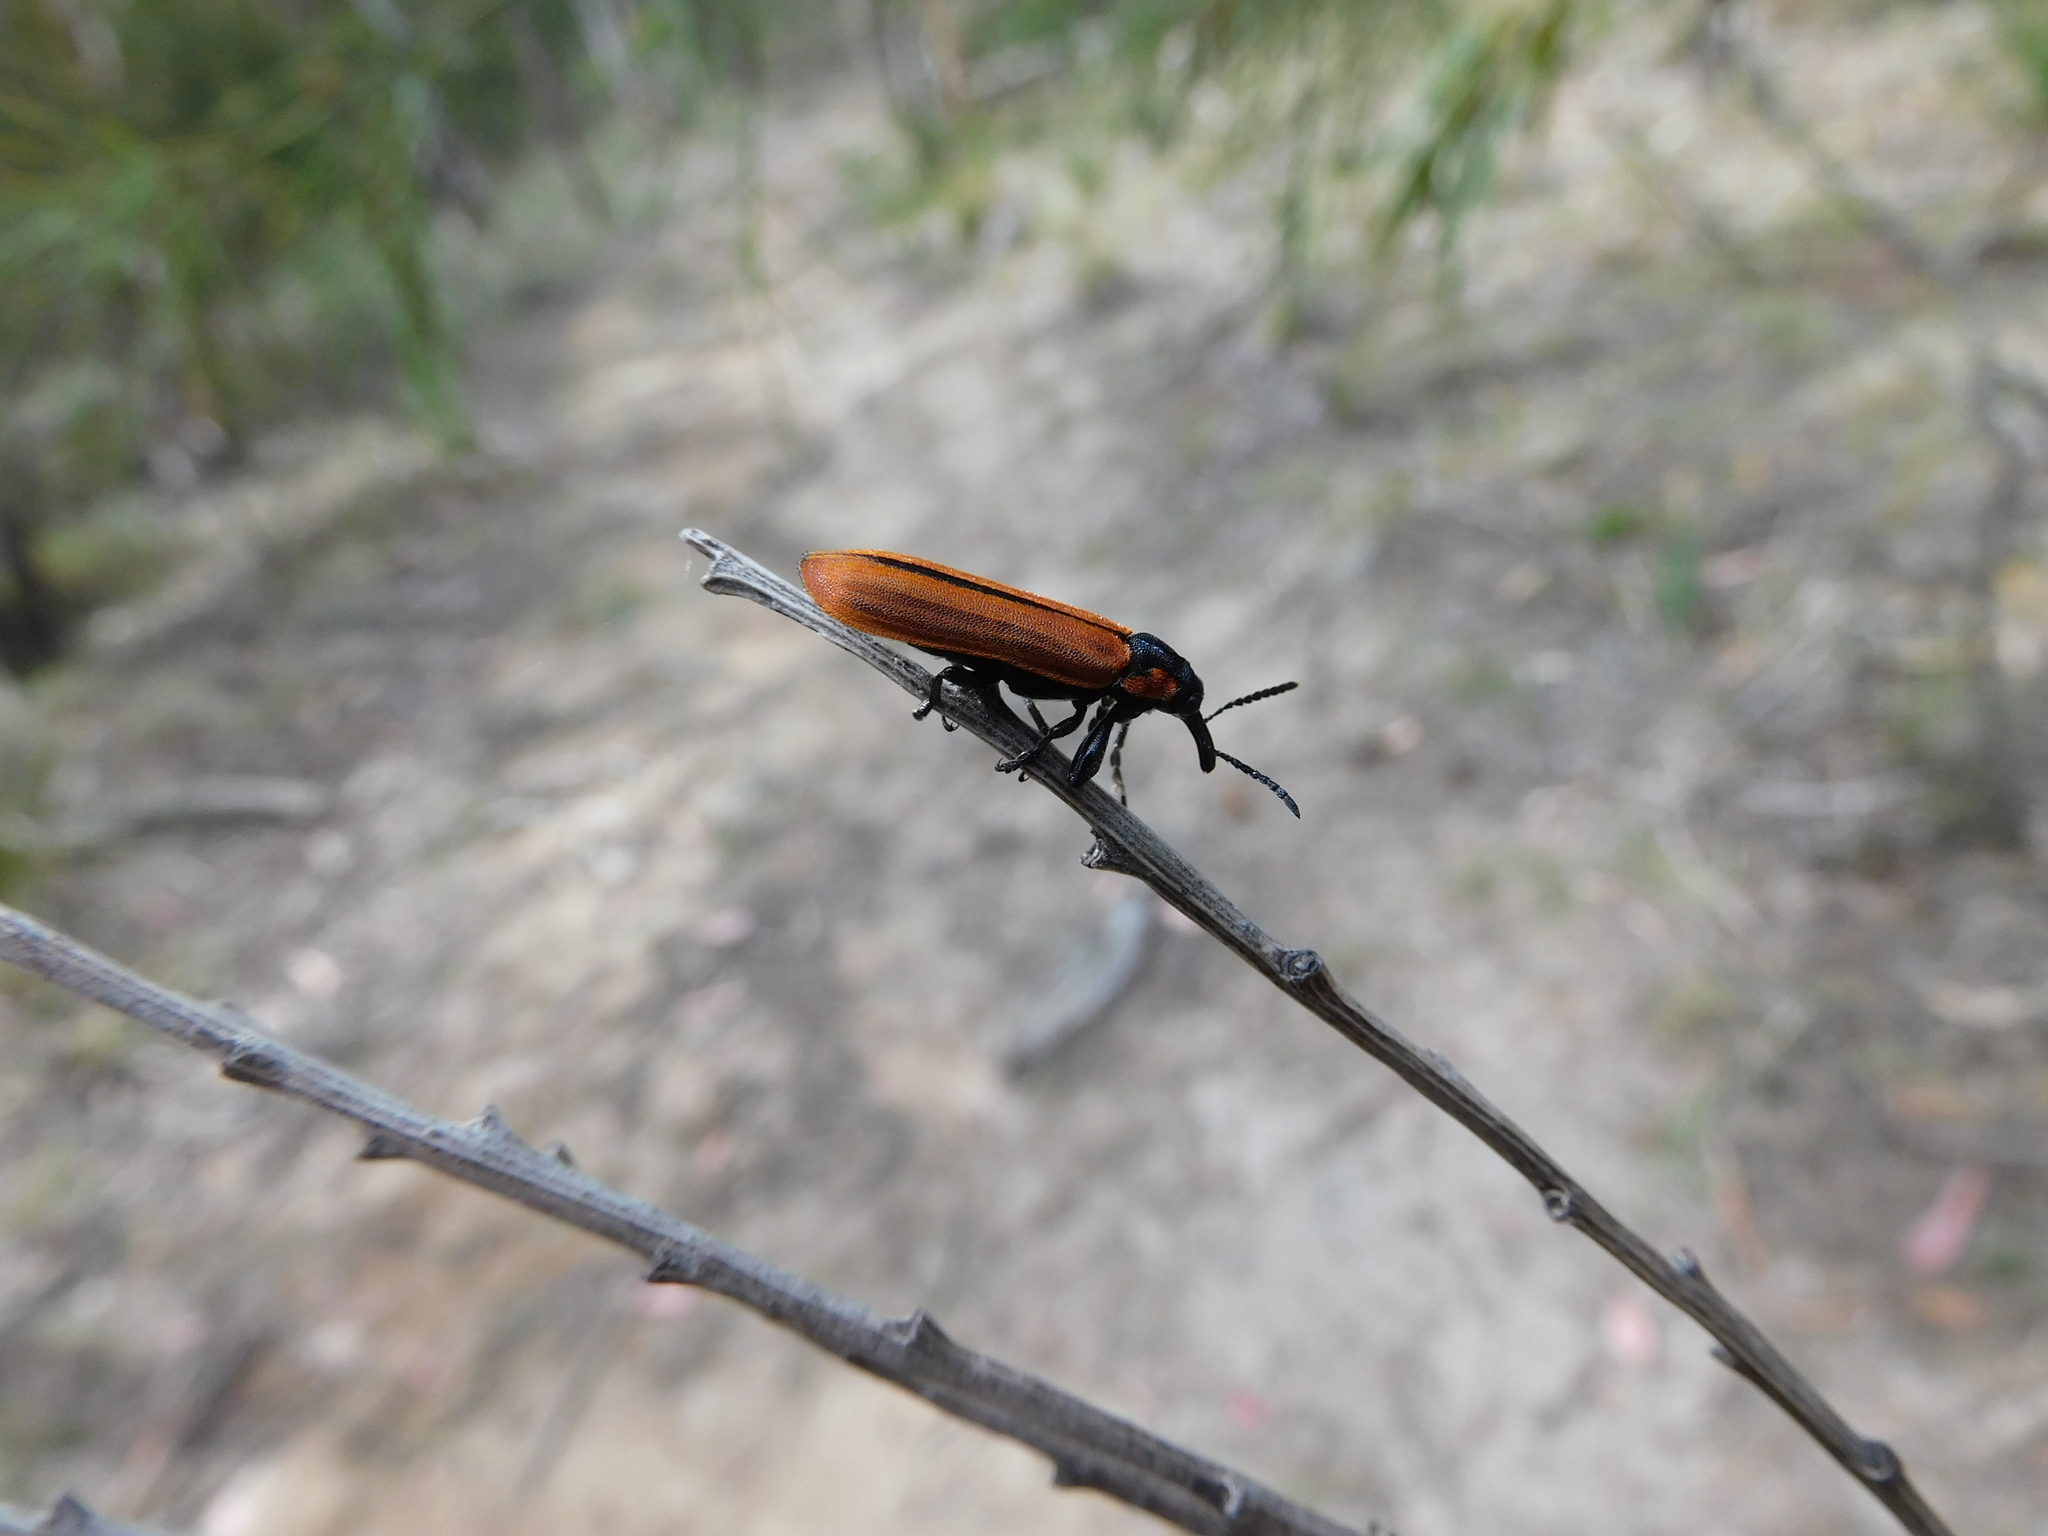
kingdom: Animalia
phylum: Arthropoda
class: Insecta
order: Coleoptera
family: Belidae
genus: Rhinotia
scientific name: Rhinotia haemoptera
